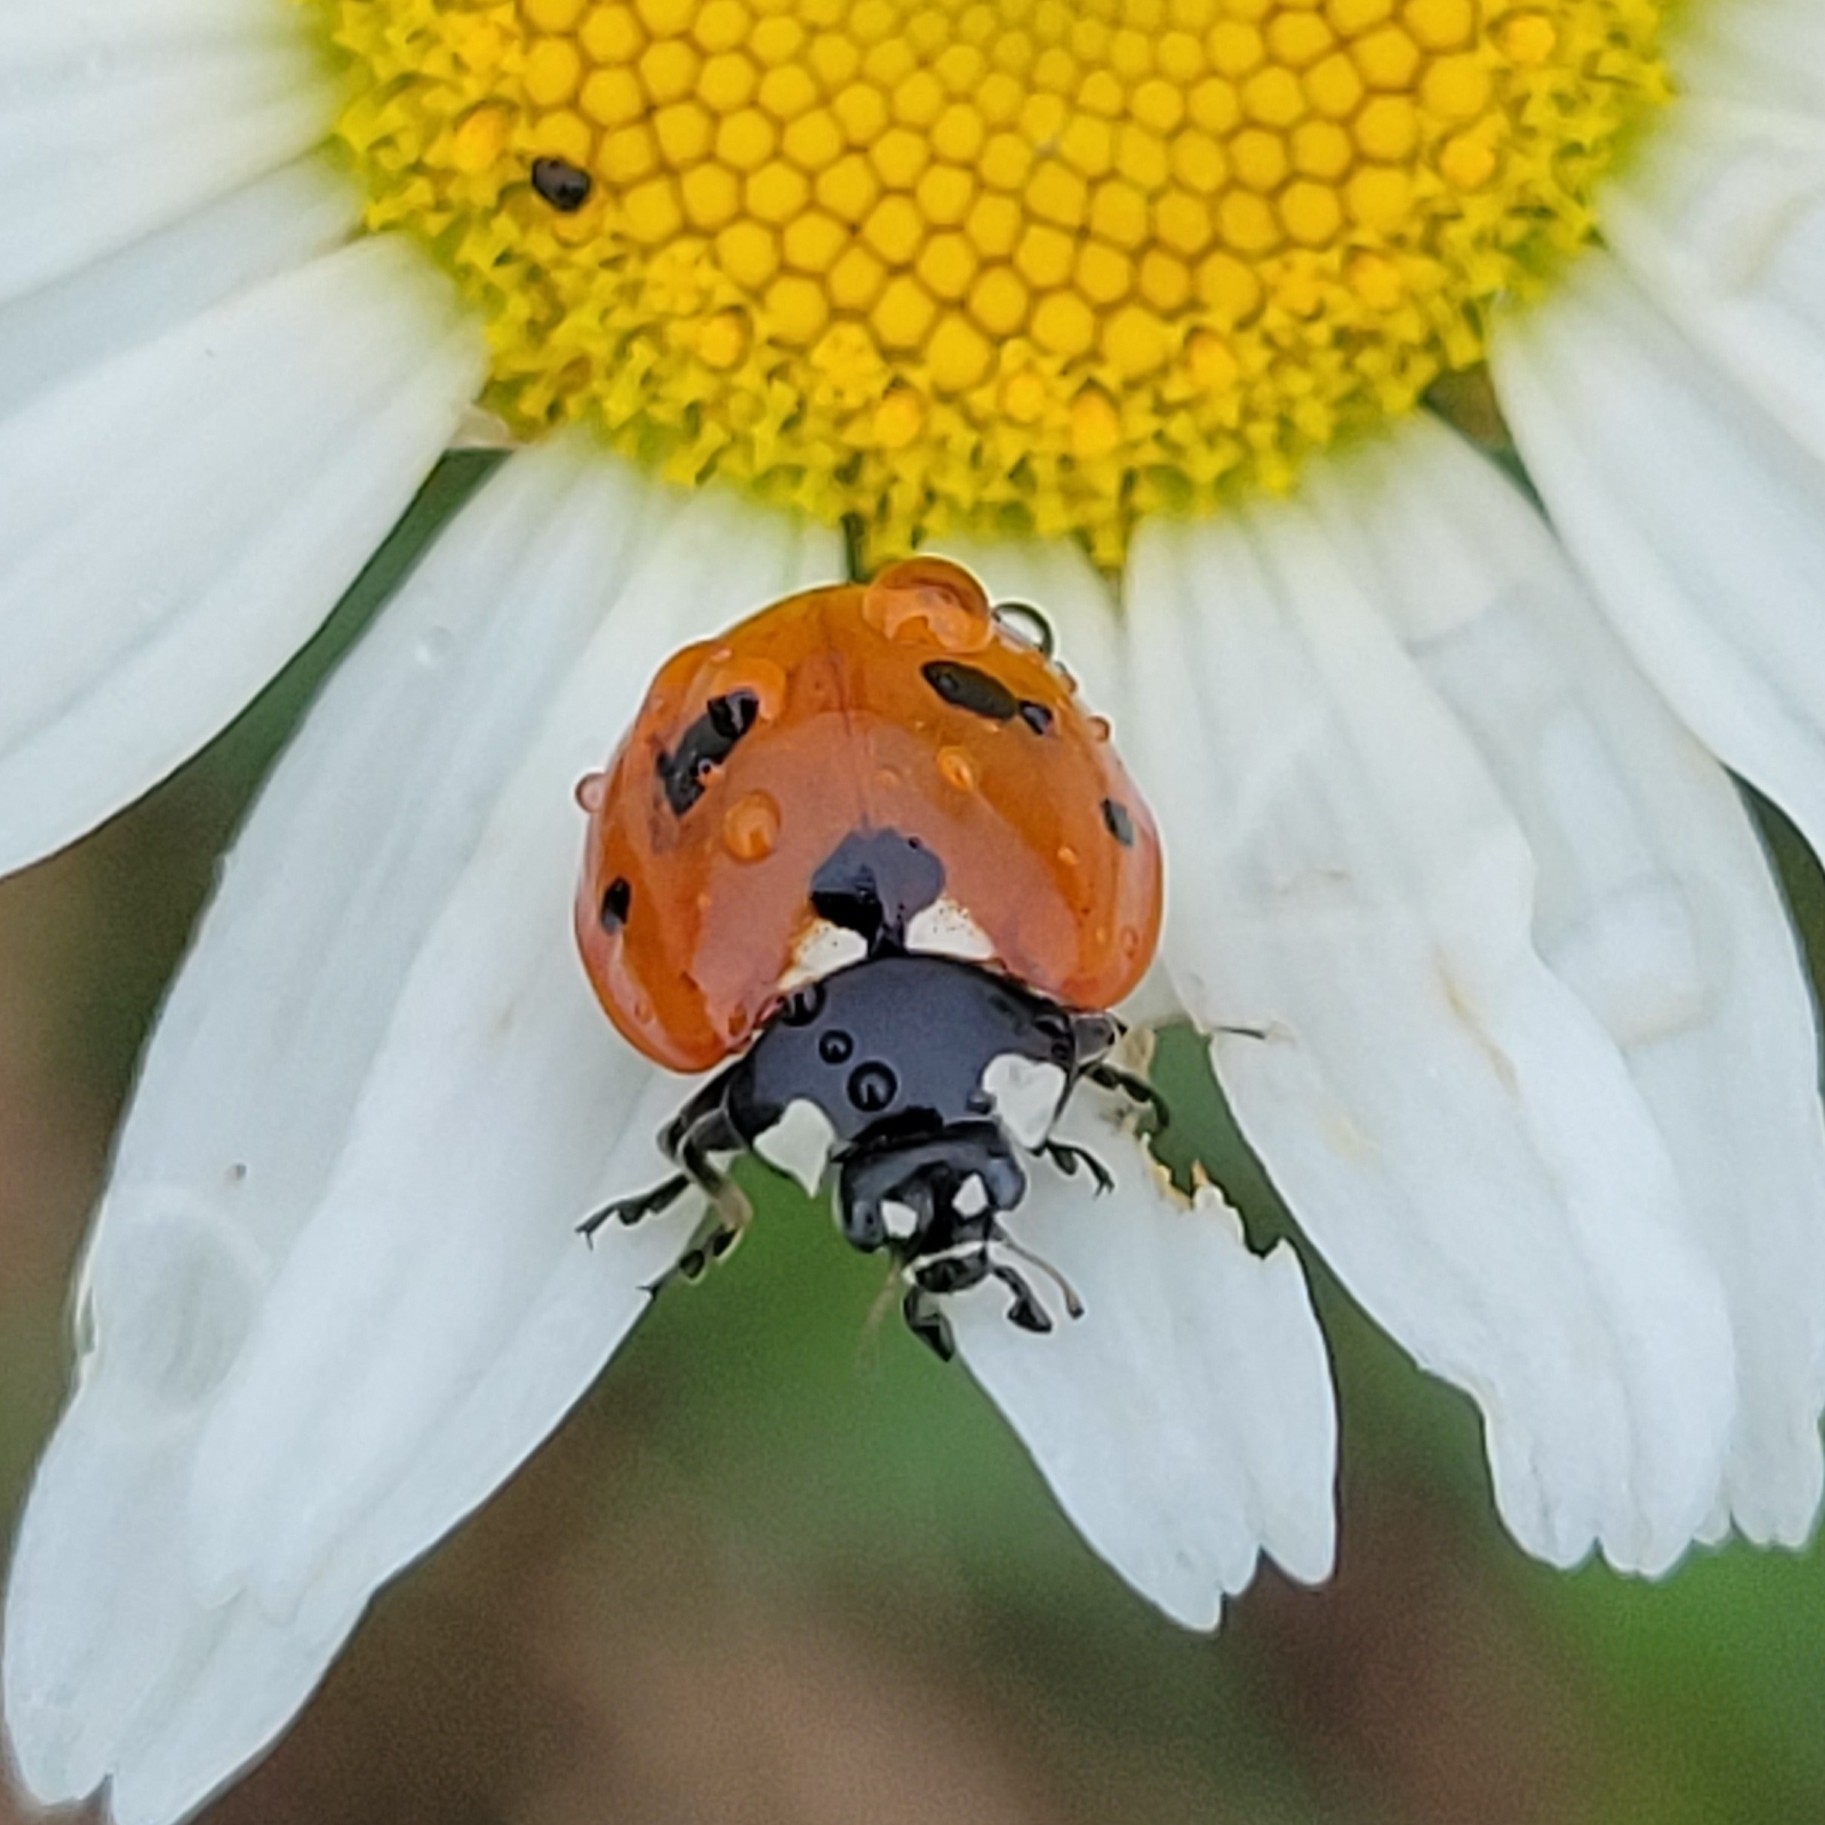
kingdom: Animalia
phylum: Arthropoda
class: Insecta
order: Coleoptera
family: Coccinellidae
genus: Coccinella
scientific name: Coccinella septempunctata
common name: Sevenspotted lady beetle
